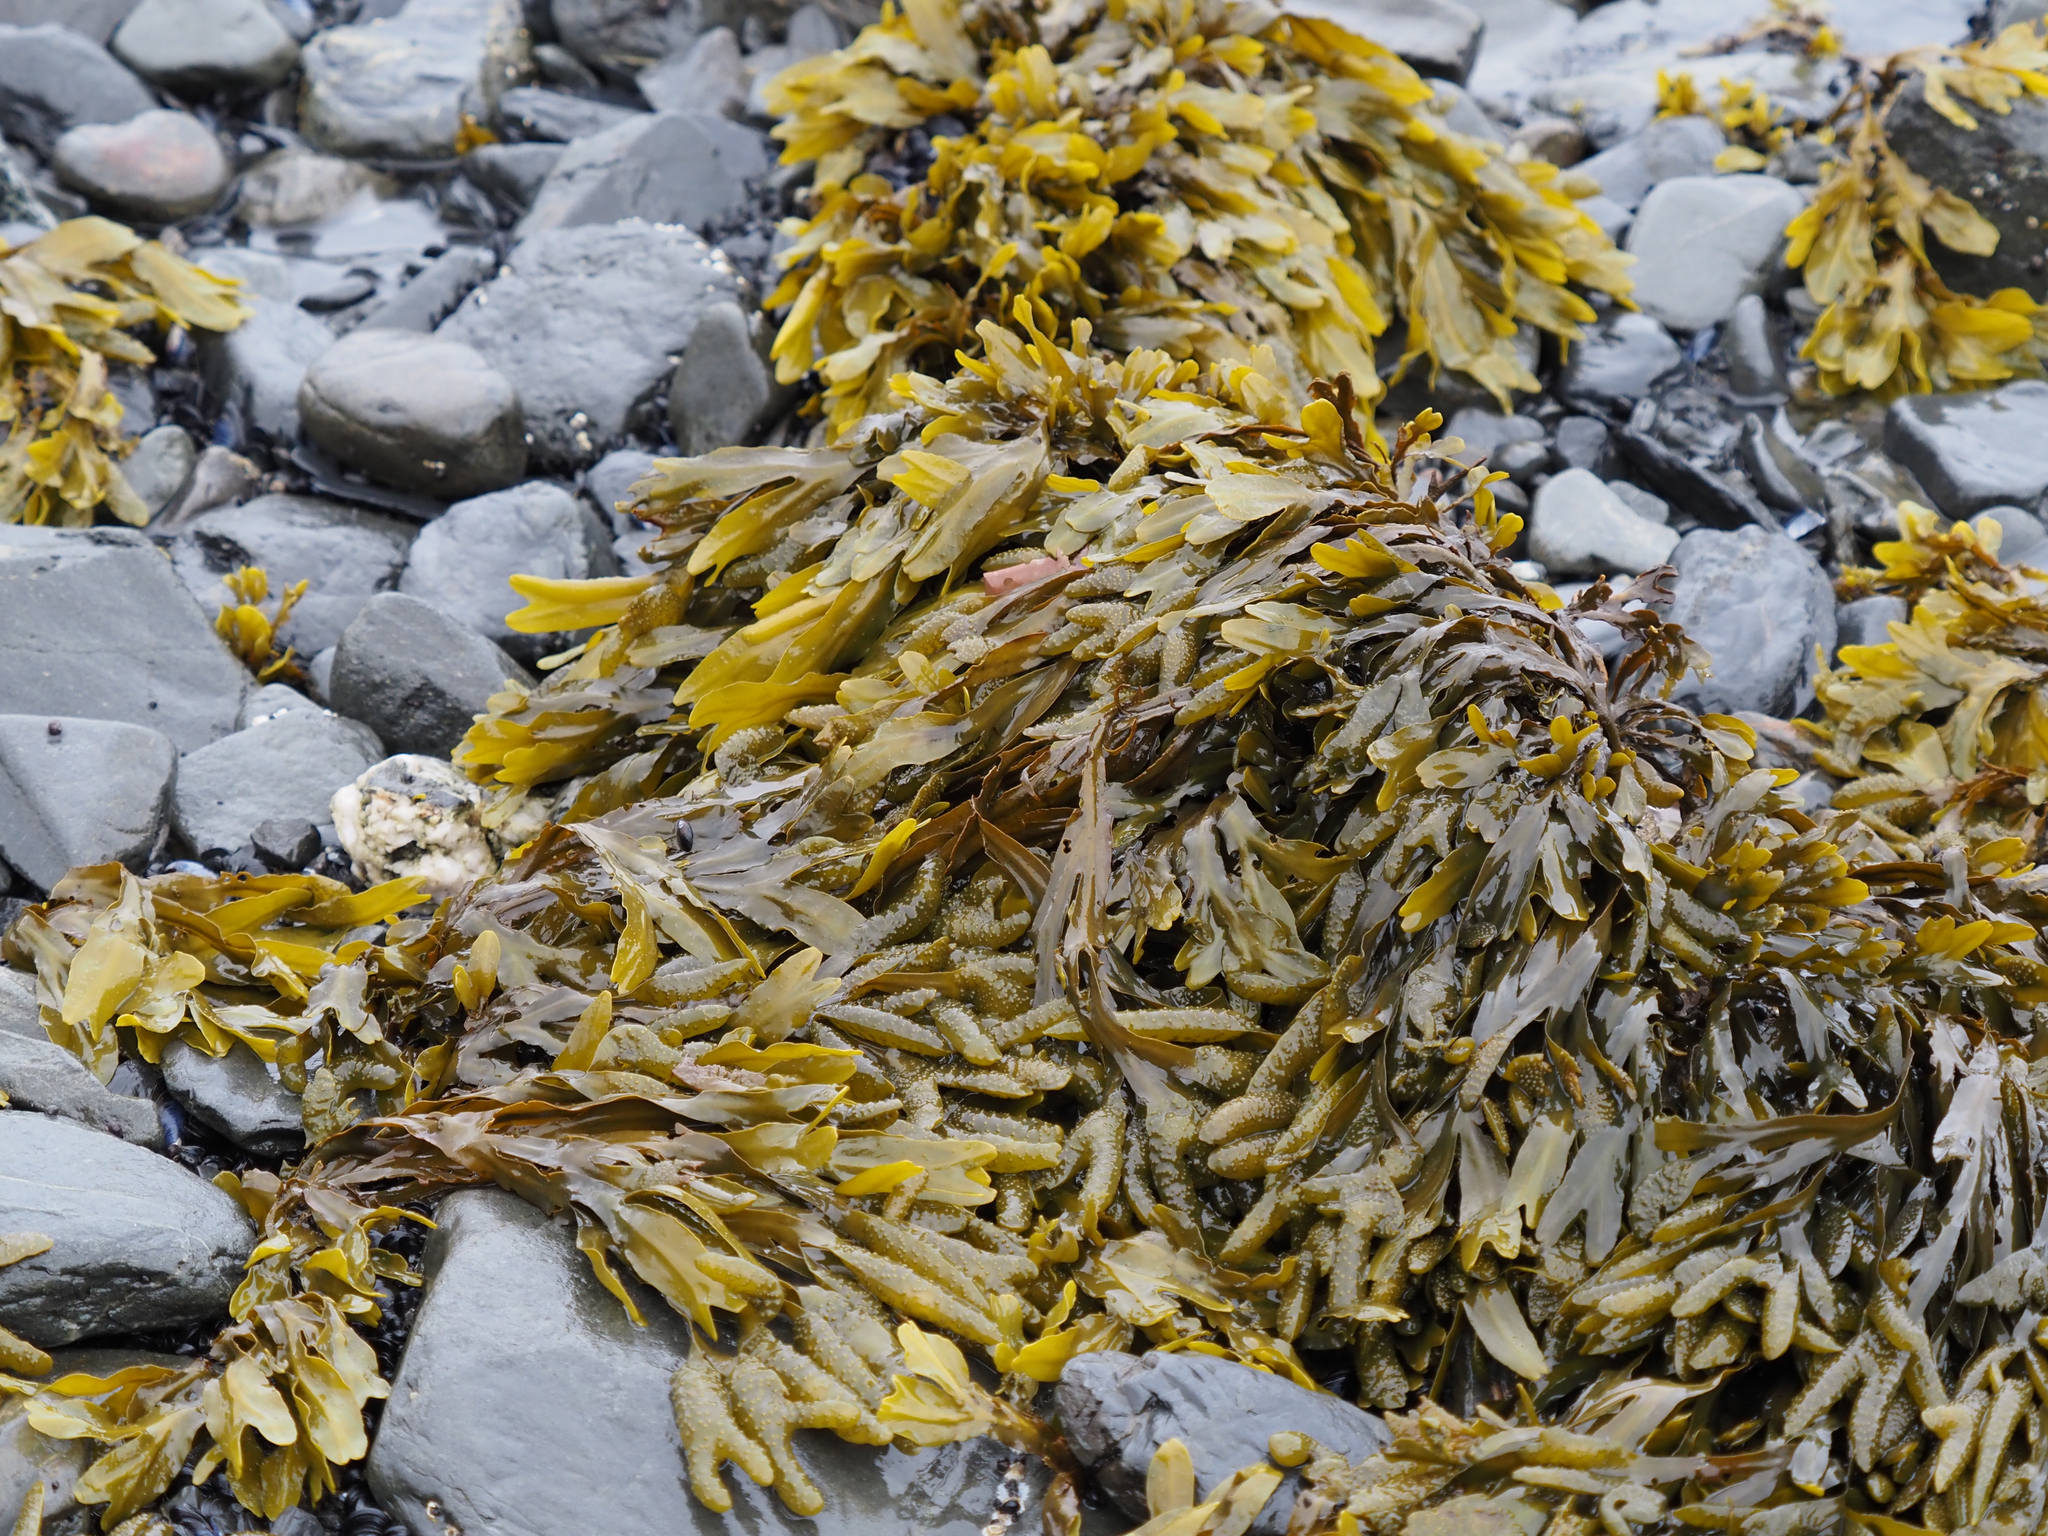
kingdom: Chromista
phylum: Ochrophyta
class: Phaeophyceae
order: Fucales
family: Fucaceae
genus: Fucus
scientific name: Fucus distichus
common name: Rockweed
